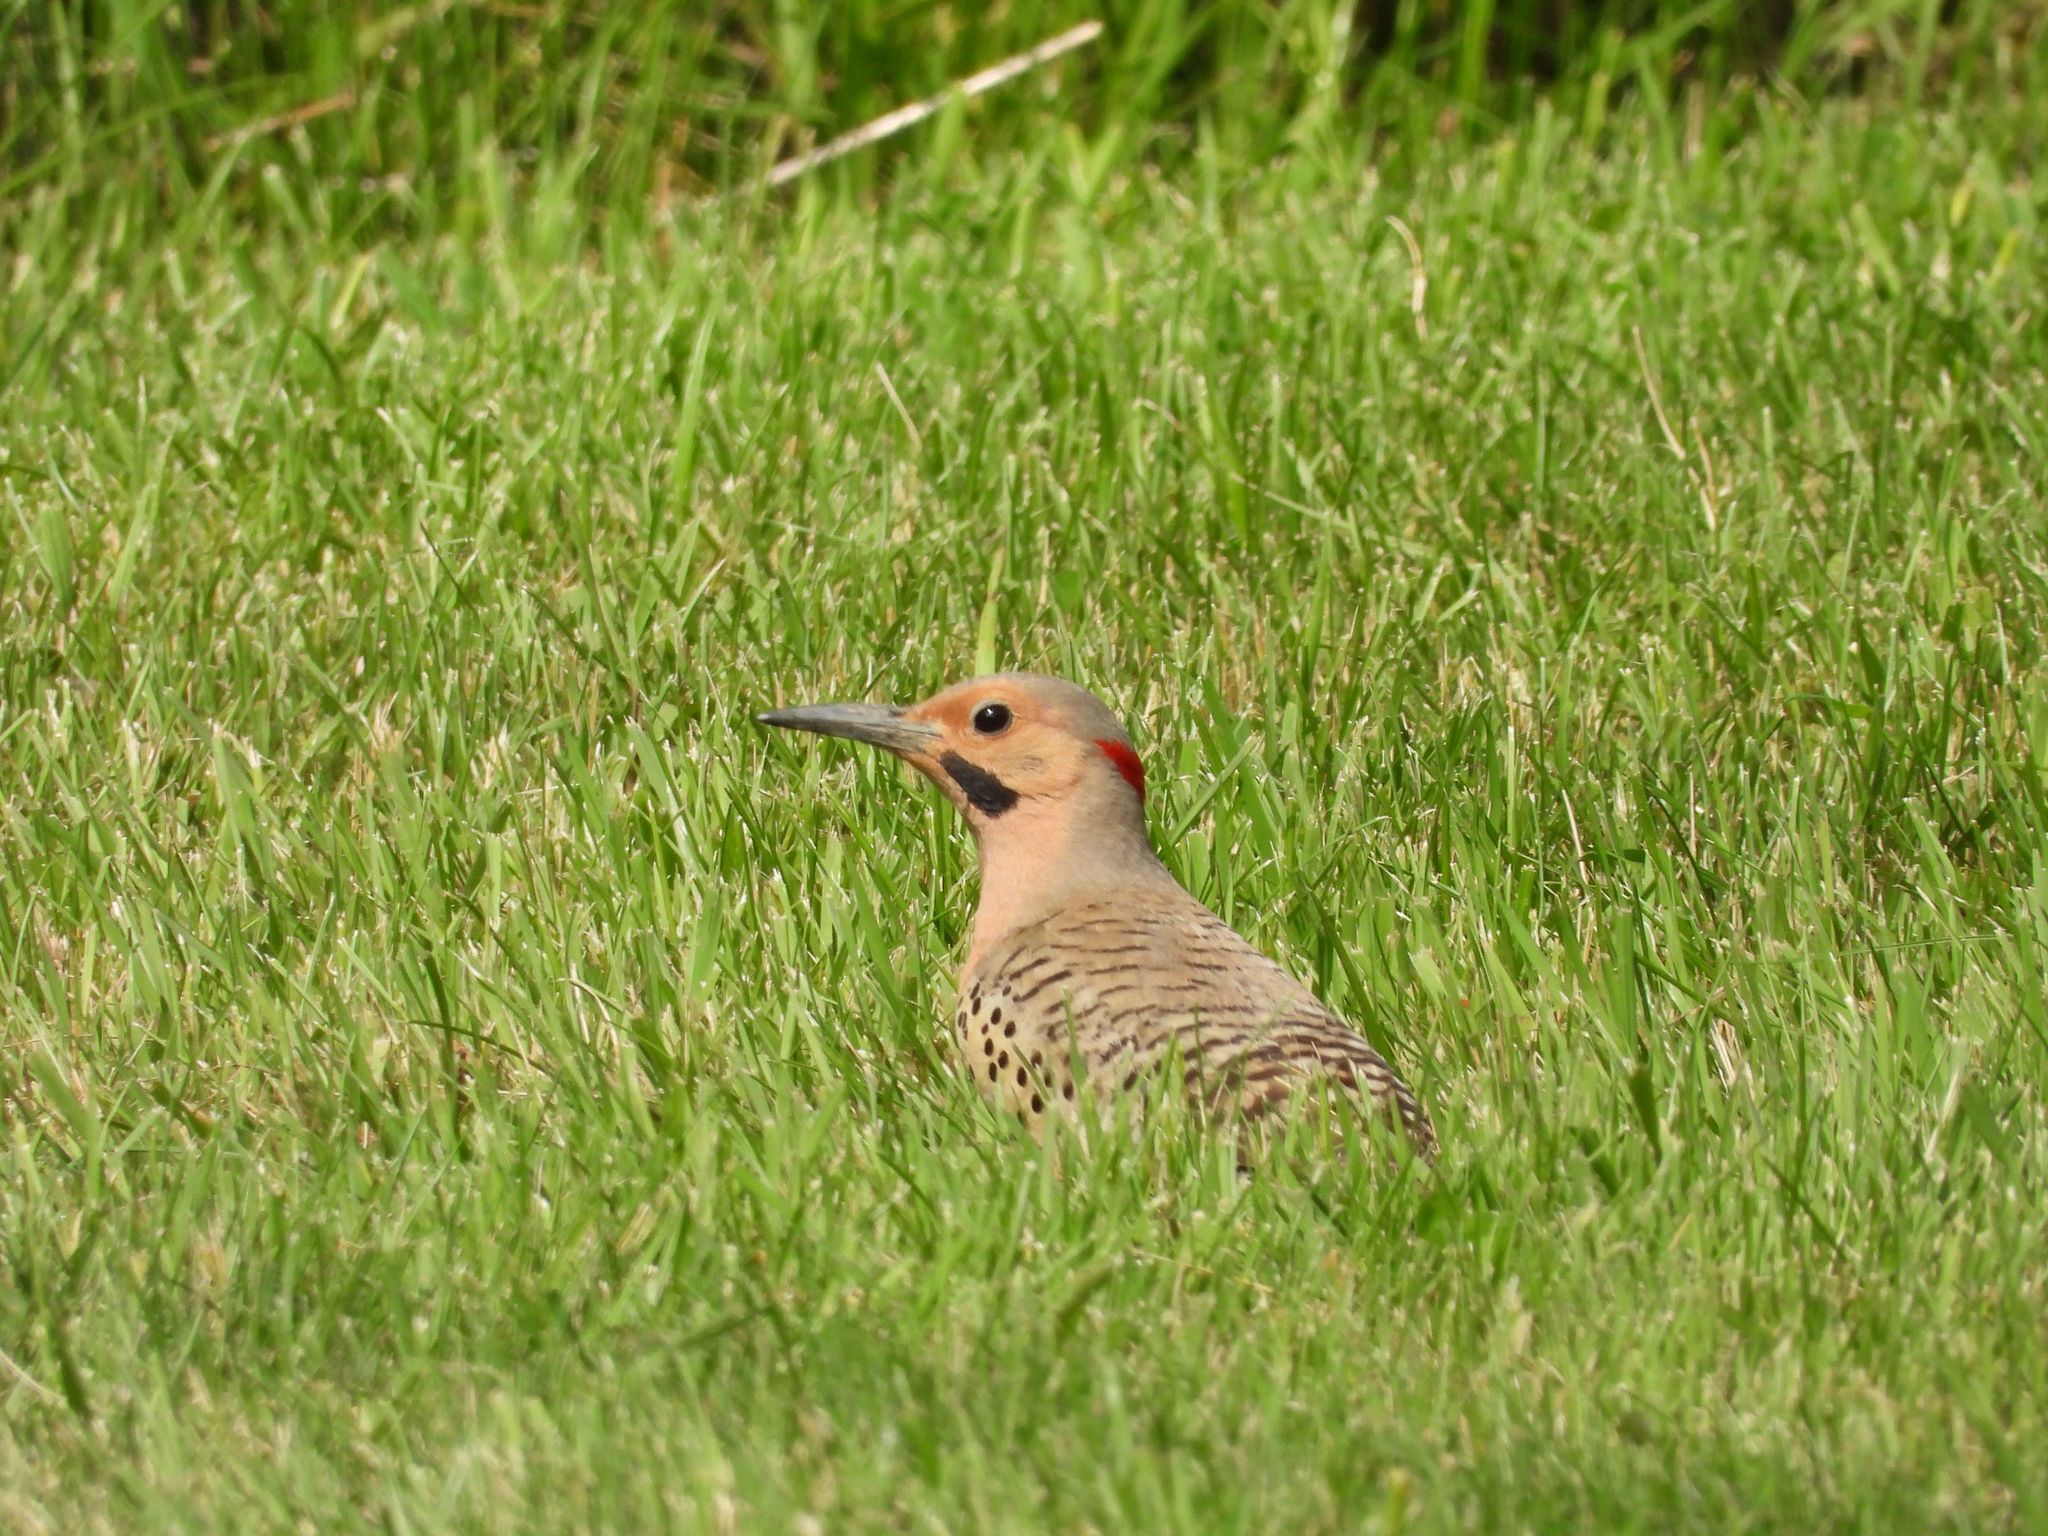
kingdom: Animalia
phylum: Chordata
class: Aves
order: Piciformes
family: Picidae
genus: Colaptes
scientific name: Colaptes auratus
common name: Northern flicker
